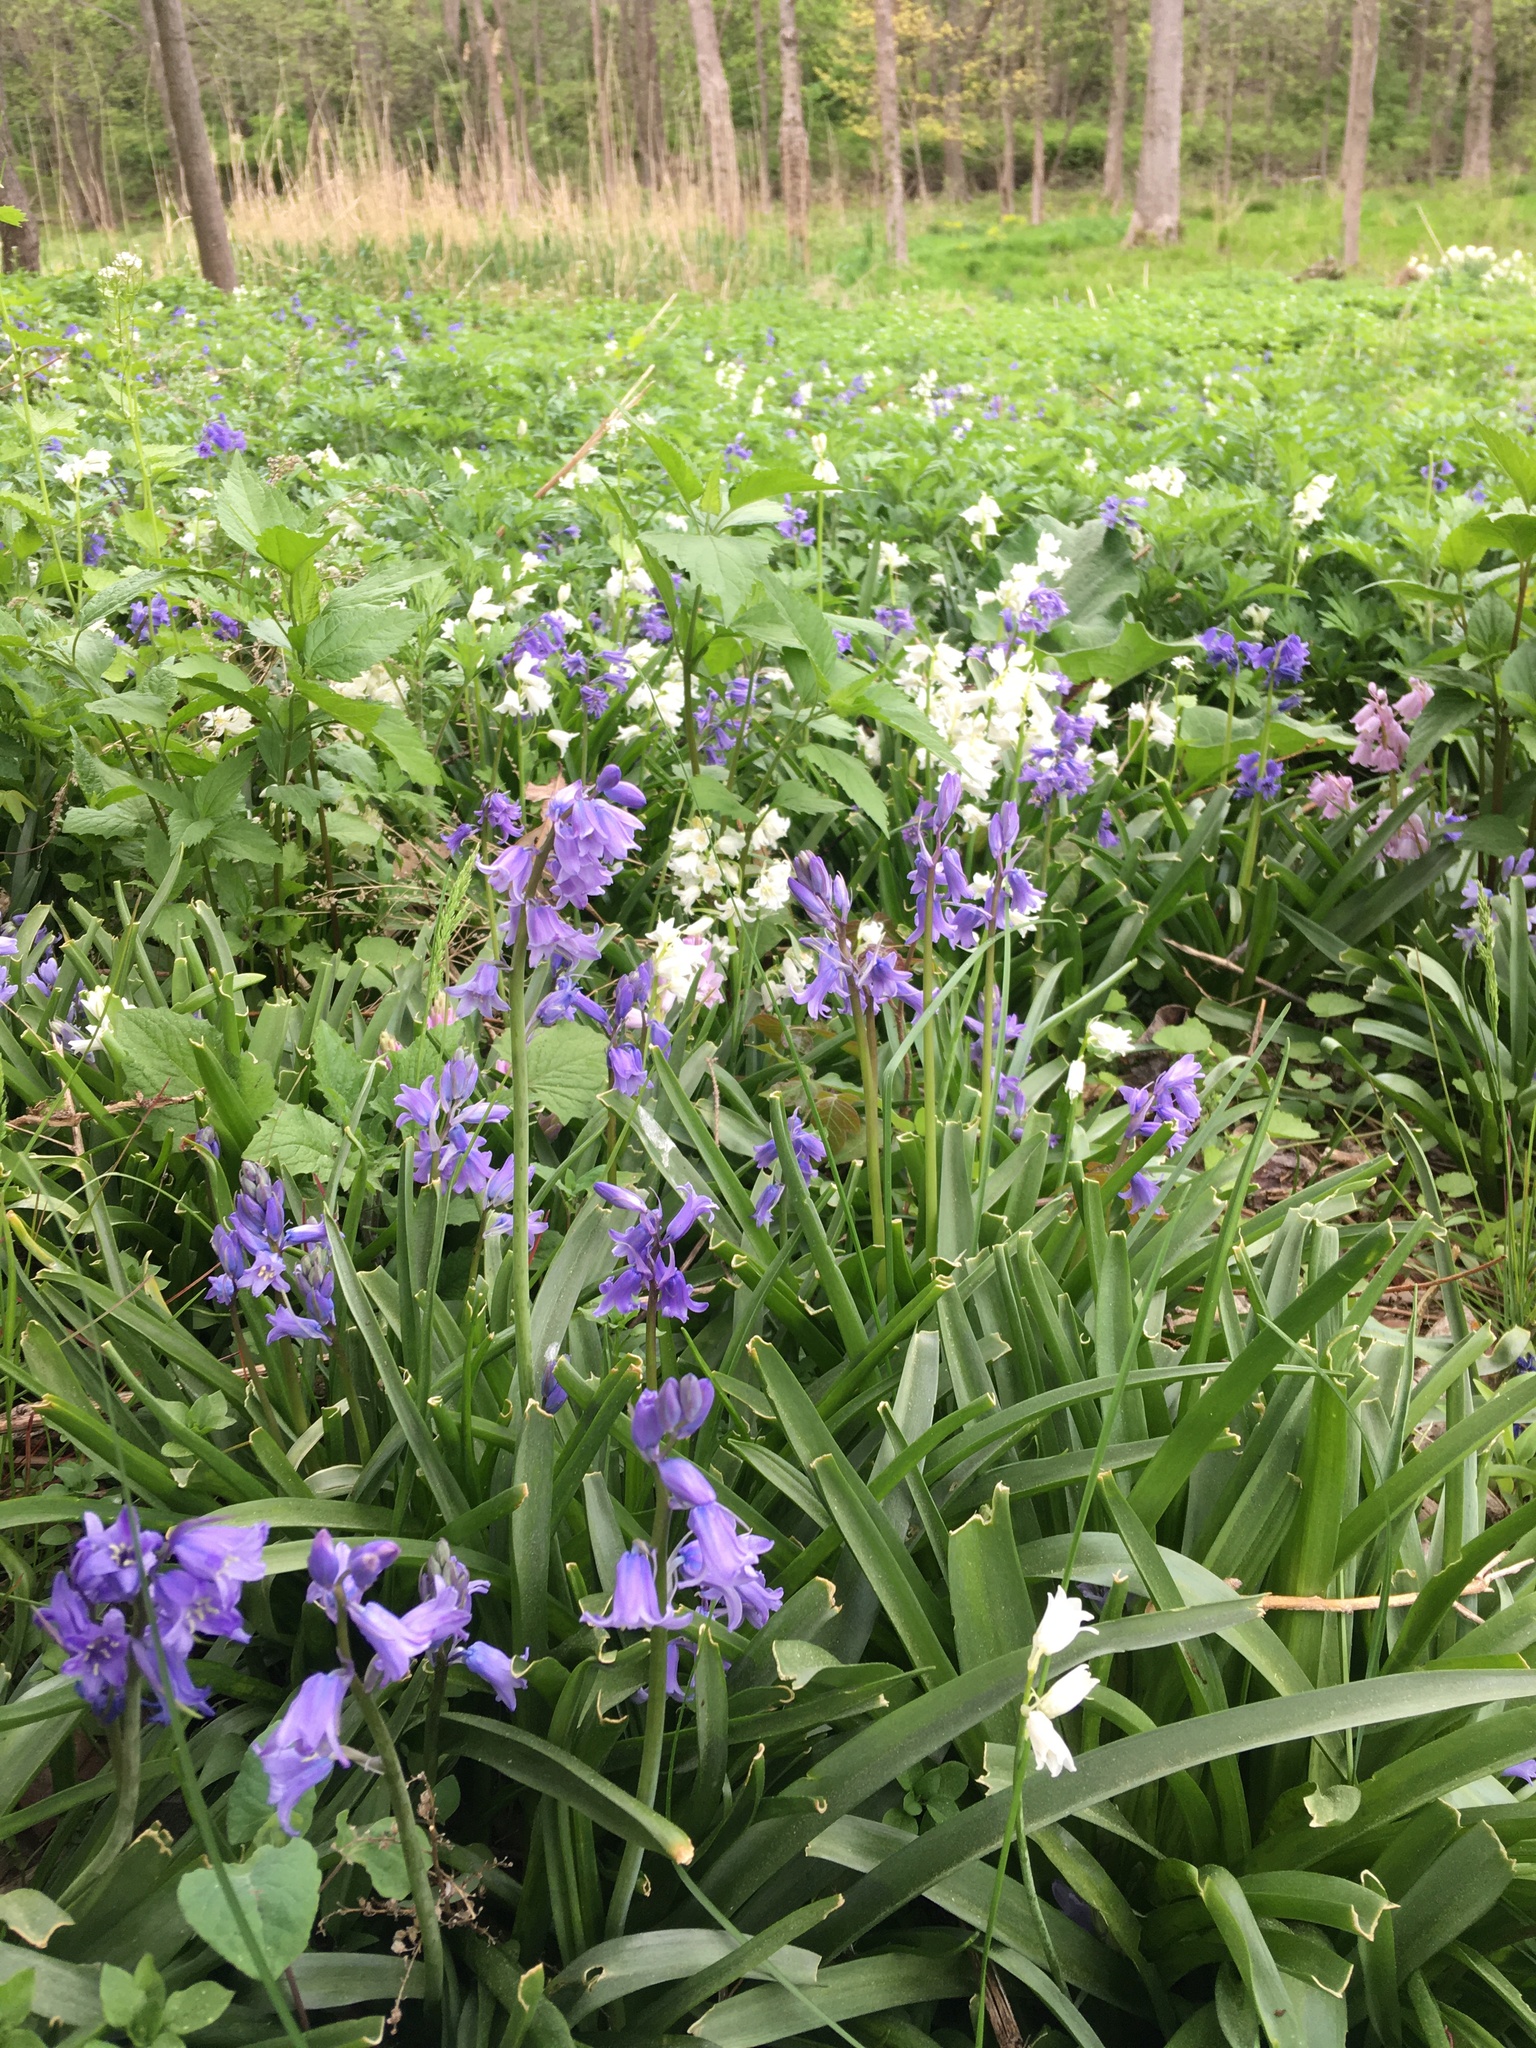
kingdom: Plantae
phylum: Tracheophyta
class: Liliopsida
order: Asparagales
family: Asparagaceae
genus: Hyacinthoides
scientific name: Hyacinthoides massartiana
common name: Hyacinthoides
